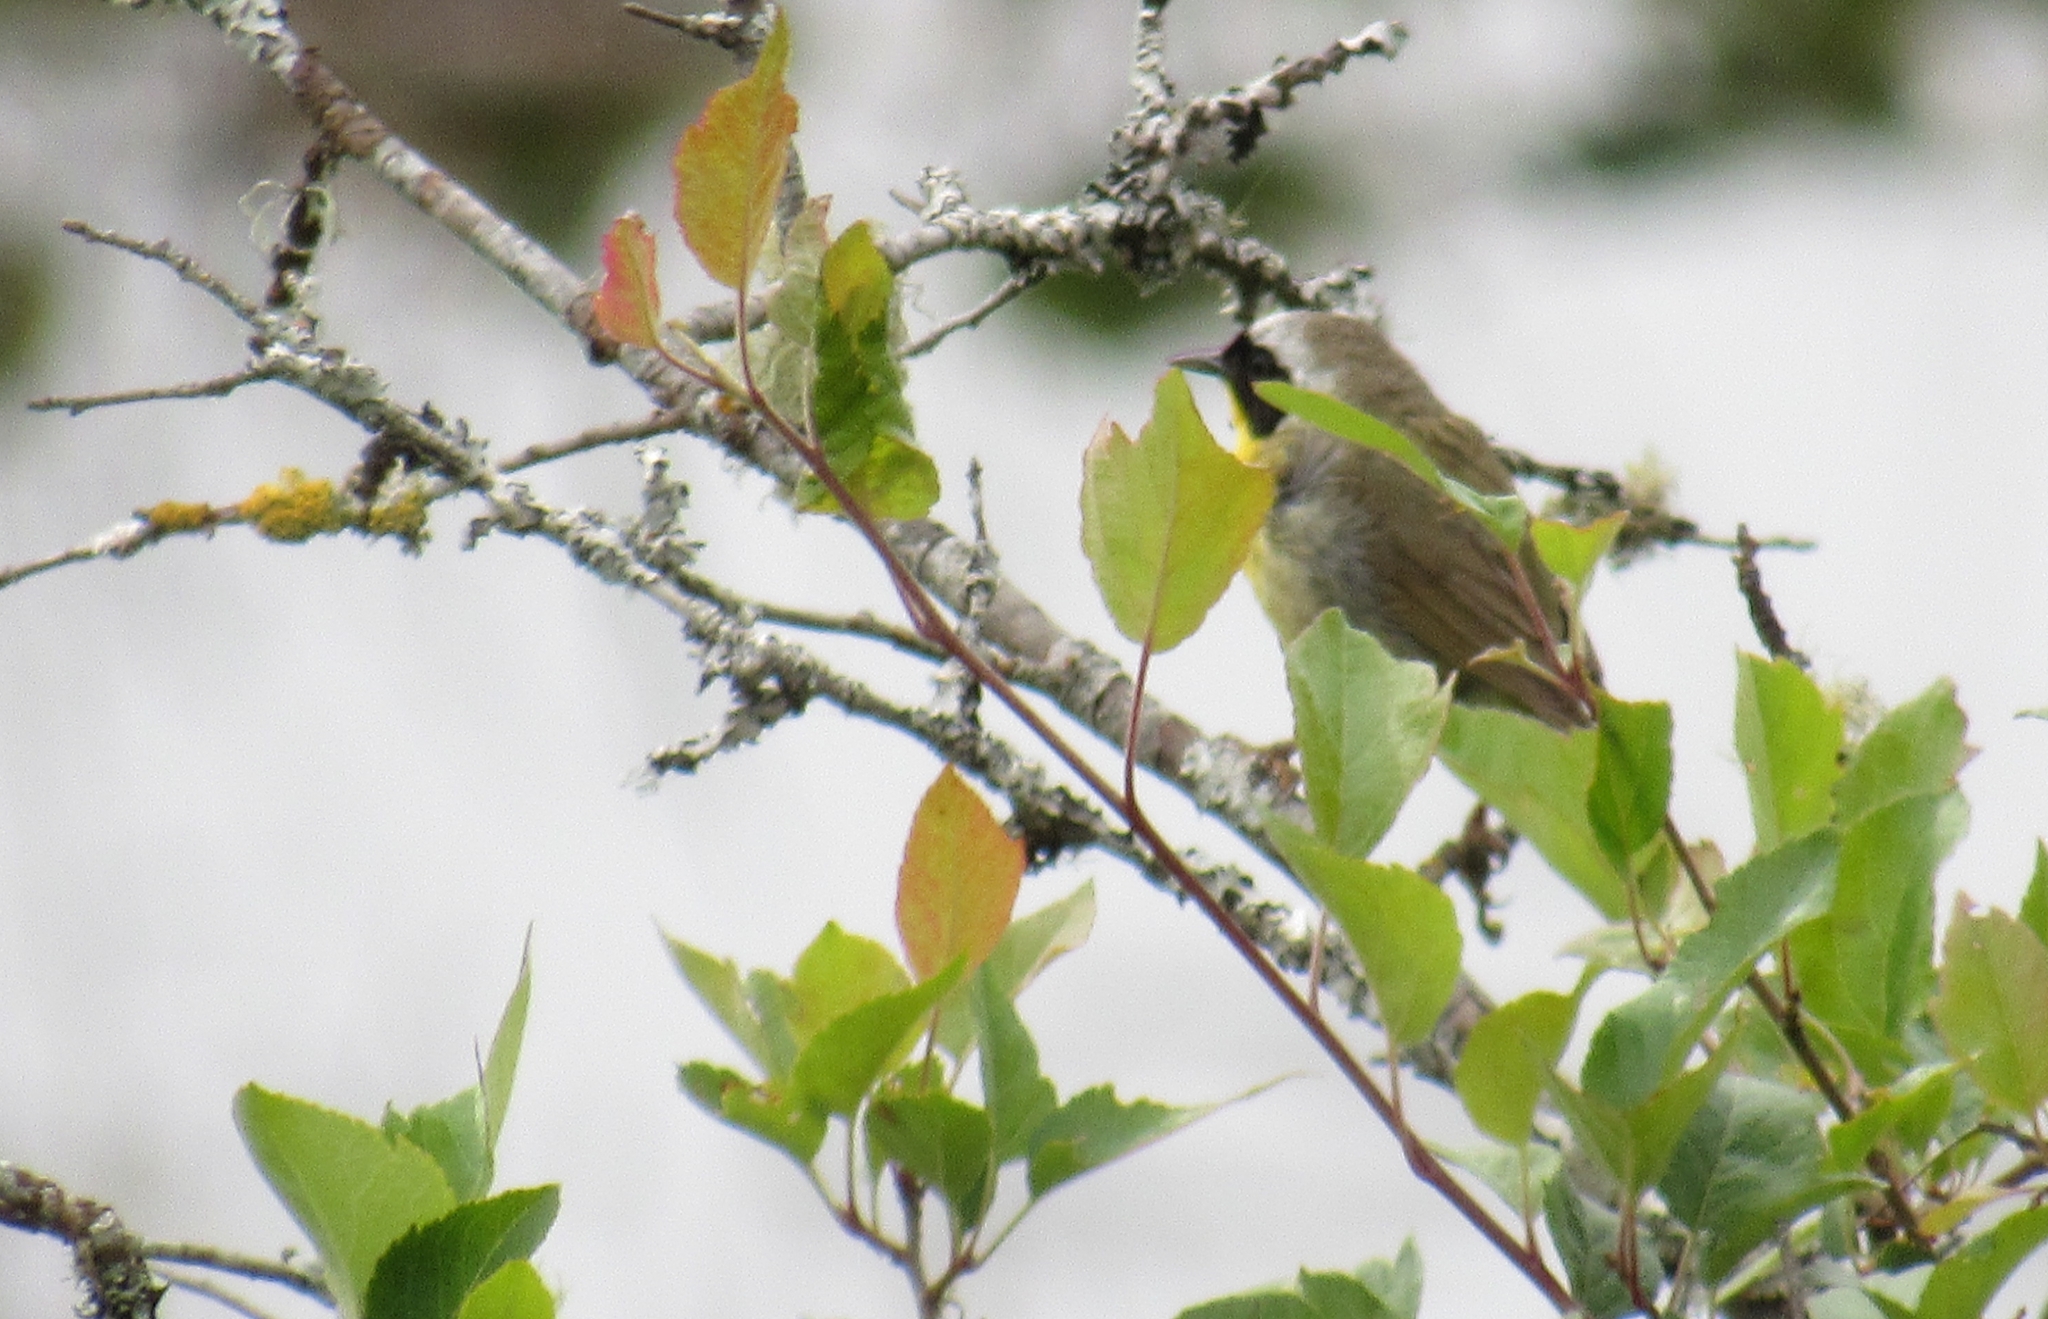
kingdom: Animalia
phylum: Chordata
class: Aves
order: Passeriformes
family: Parulidae
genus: Geothlypis
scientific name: Geothlypis trichas
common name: Common yellowthroat
